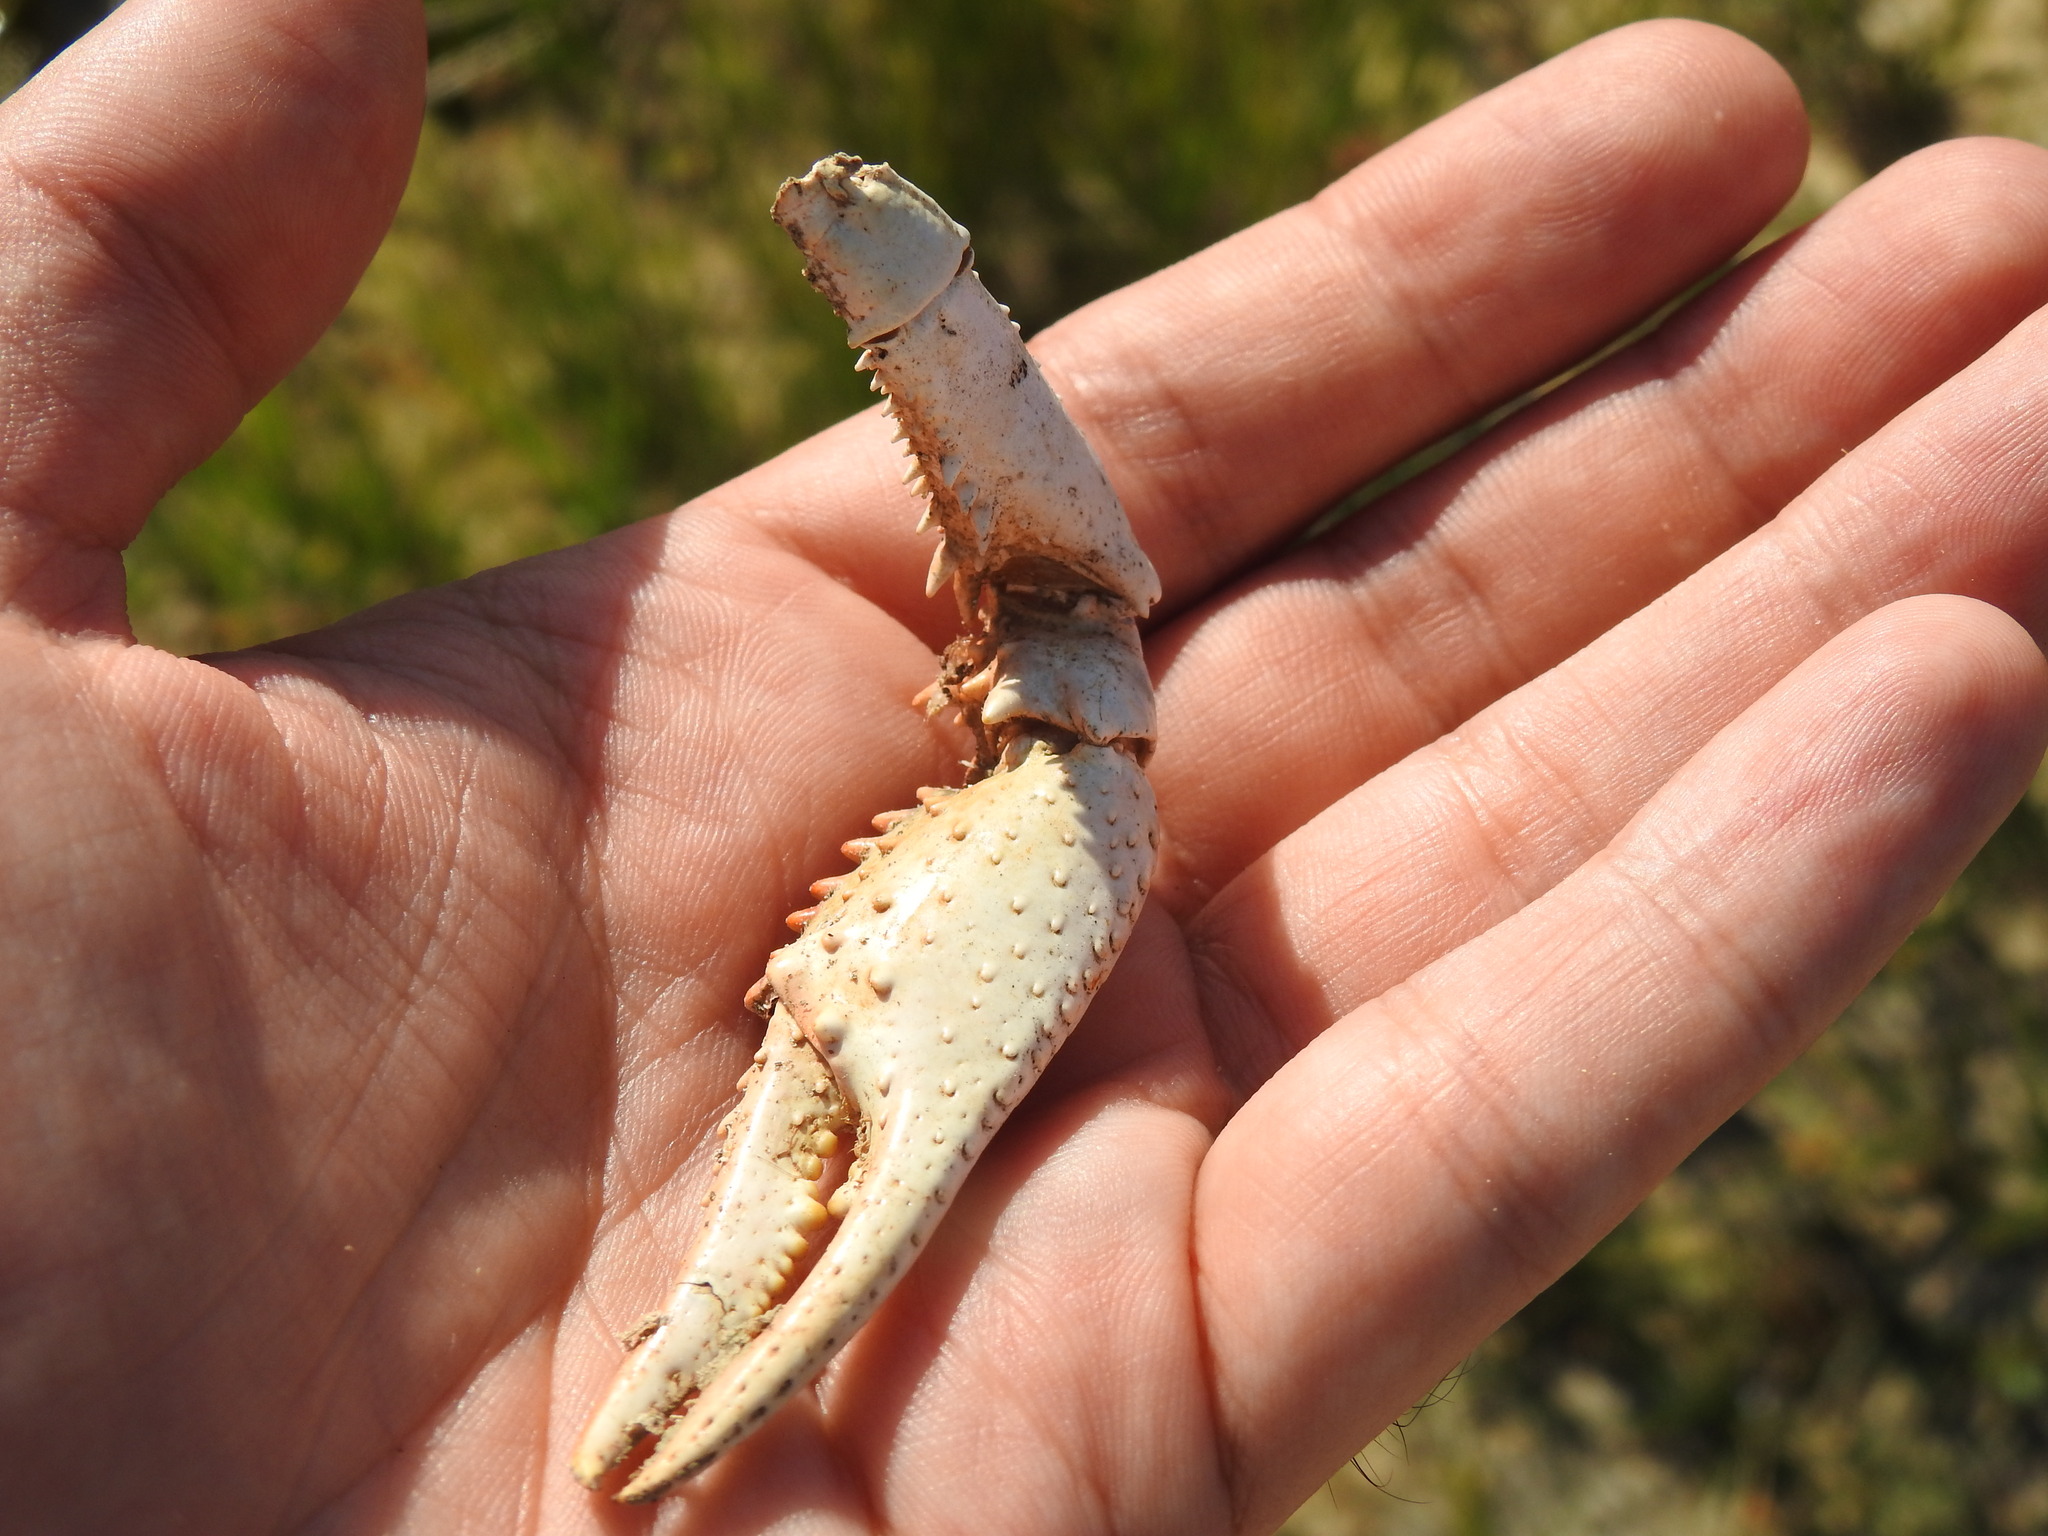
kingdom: Animalia
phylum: Arthropoda
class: Malacostraca
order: Decapoda
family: Cambaridae
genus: Procambarus
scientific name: Procambarus clarkii
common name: Red swamp crayfish
